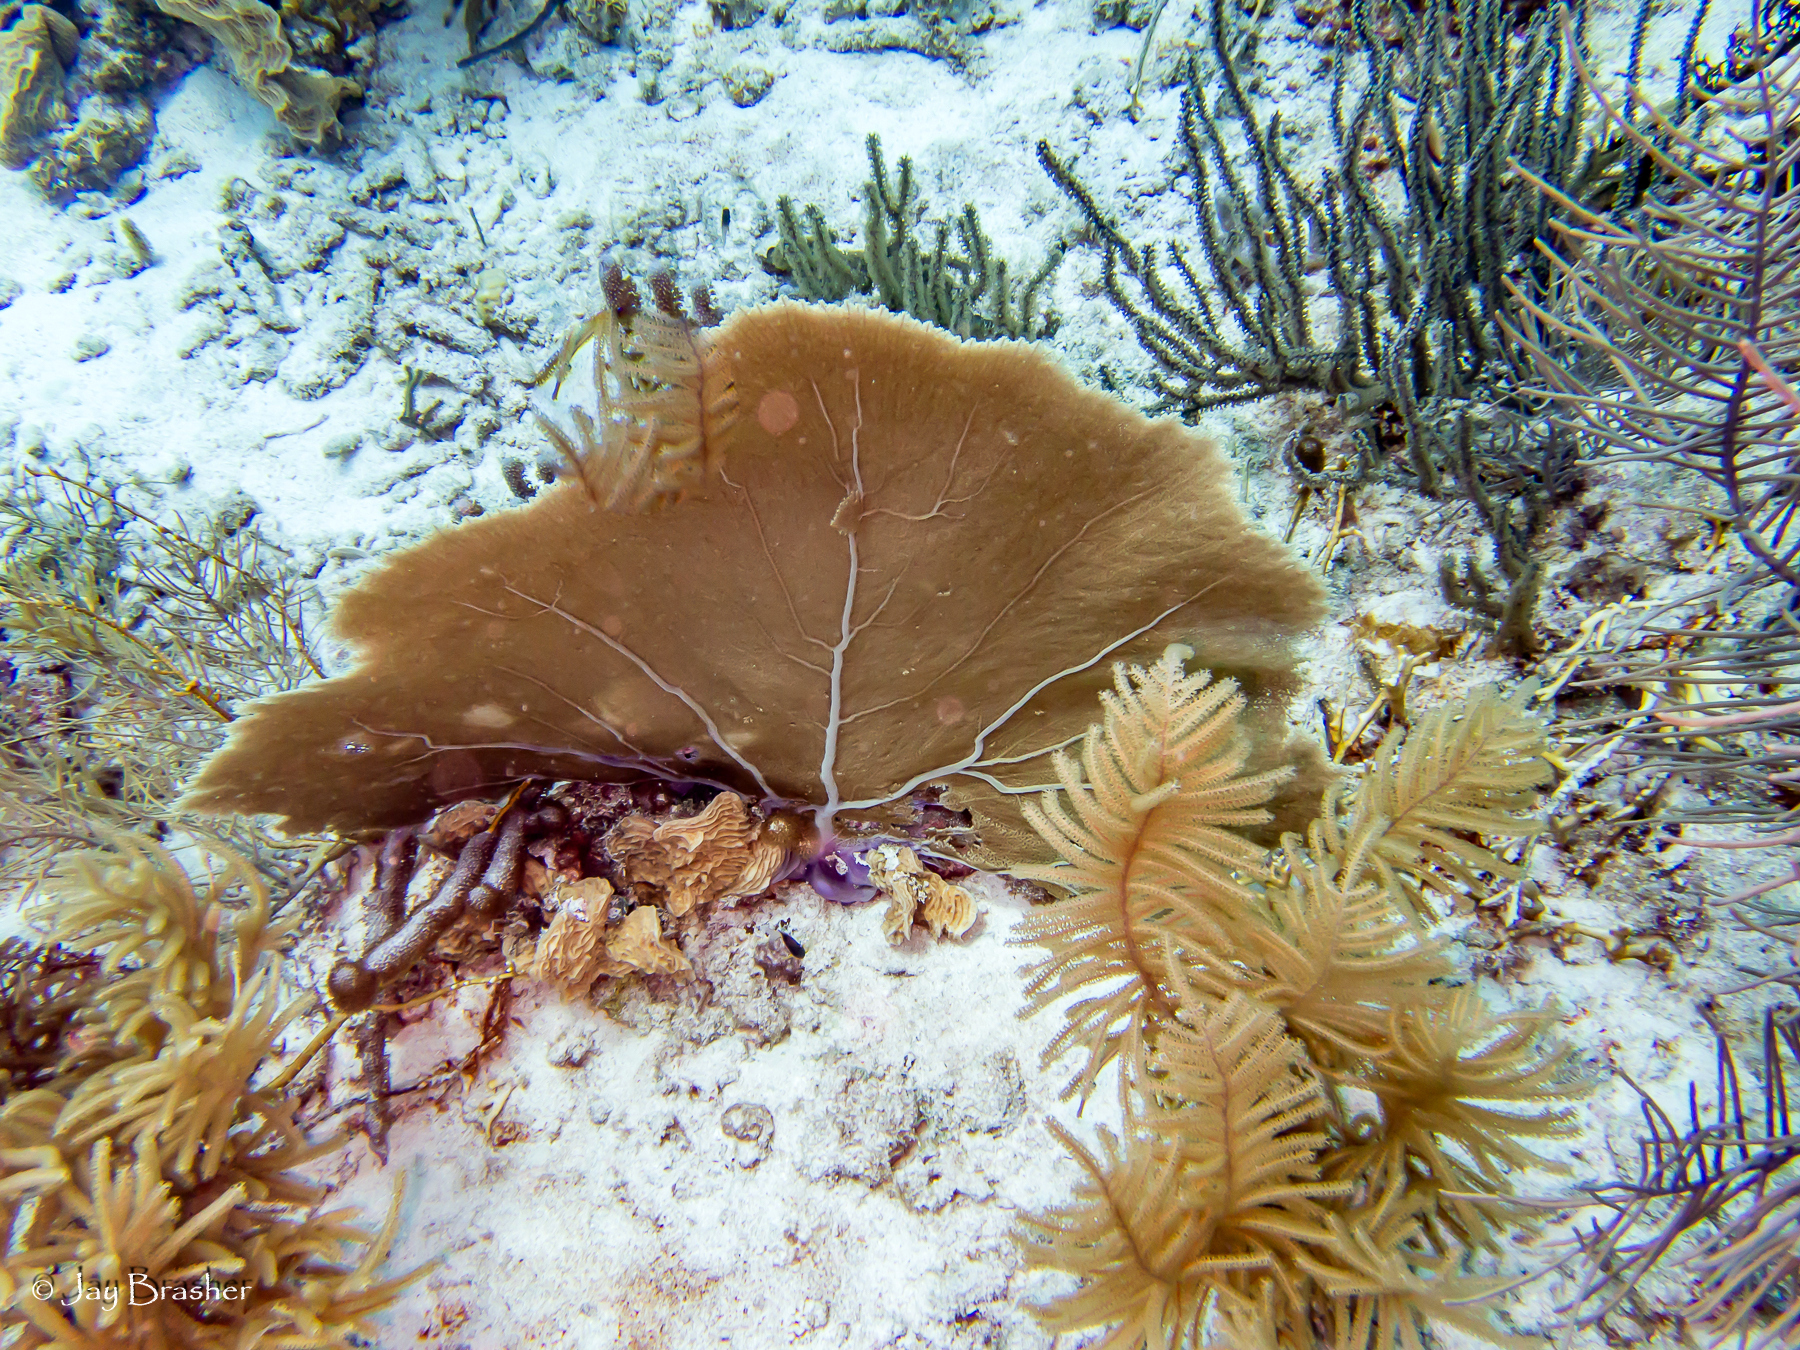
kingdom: Animalia
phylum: Cnidaria
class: Anthozoa
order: Malacalcyonacea
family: Gorgoniidae
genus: Gorgonia
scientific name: Gorgonia ventalina
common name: Common sea fan
